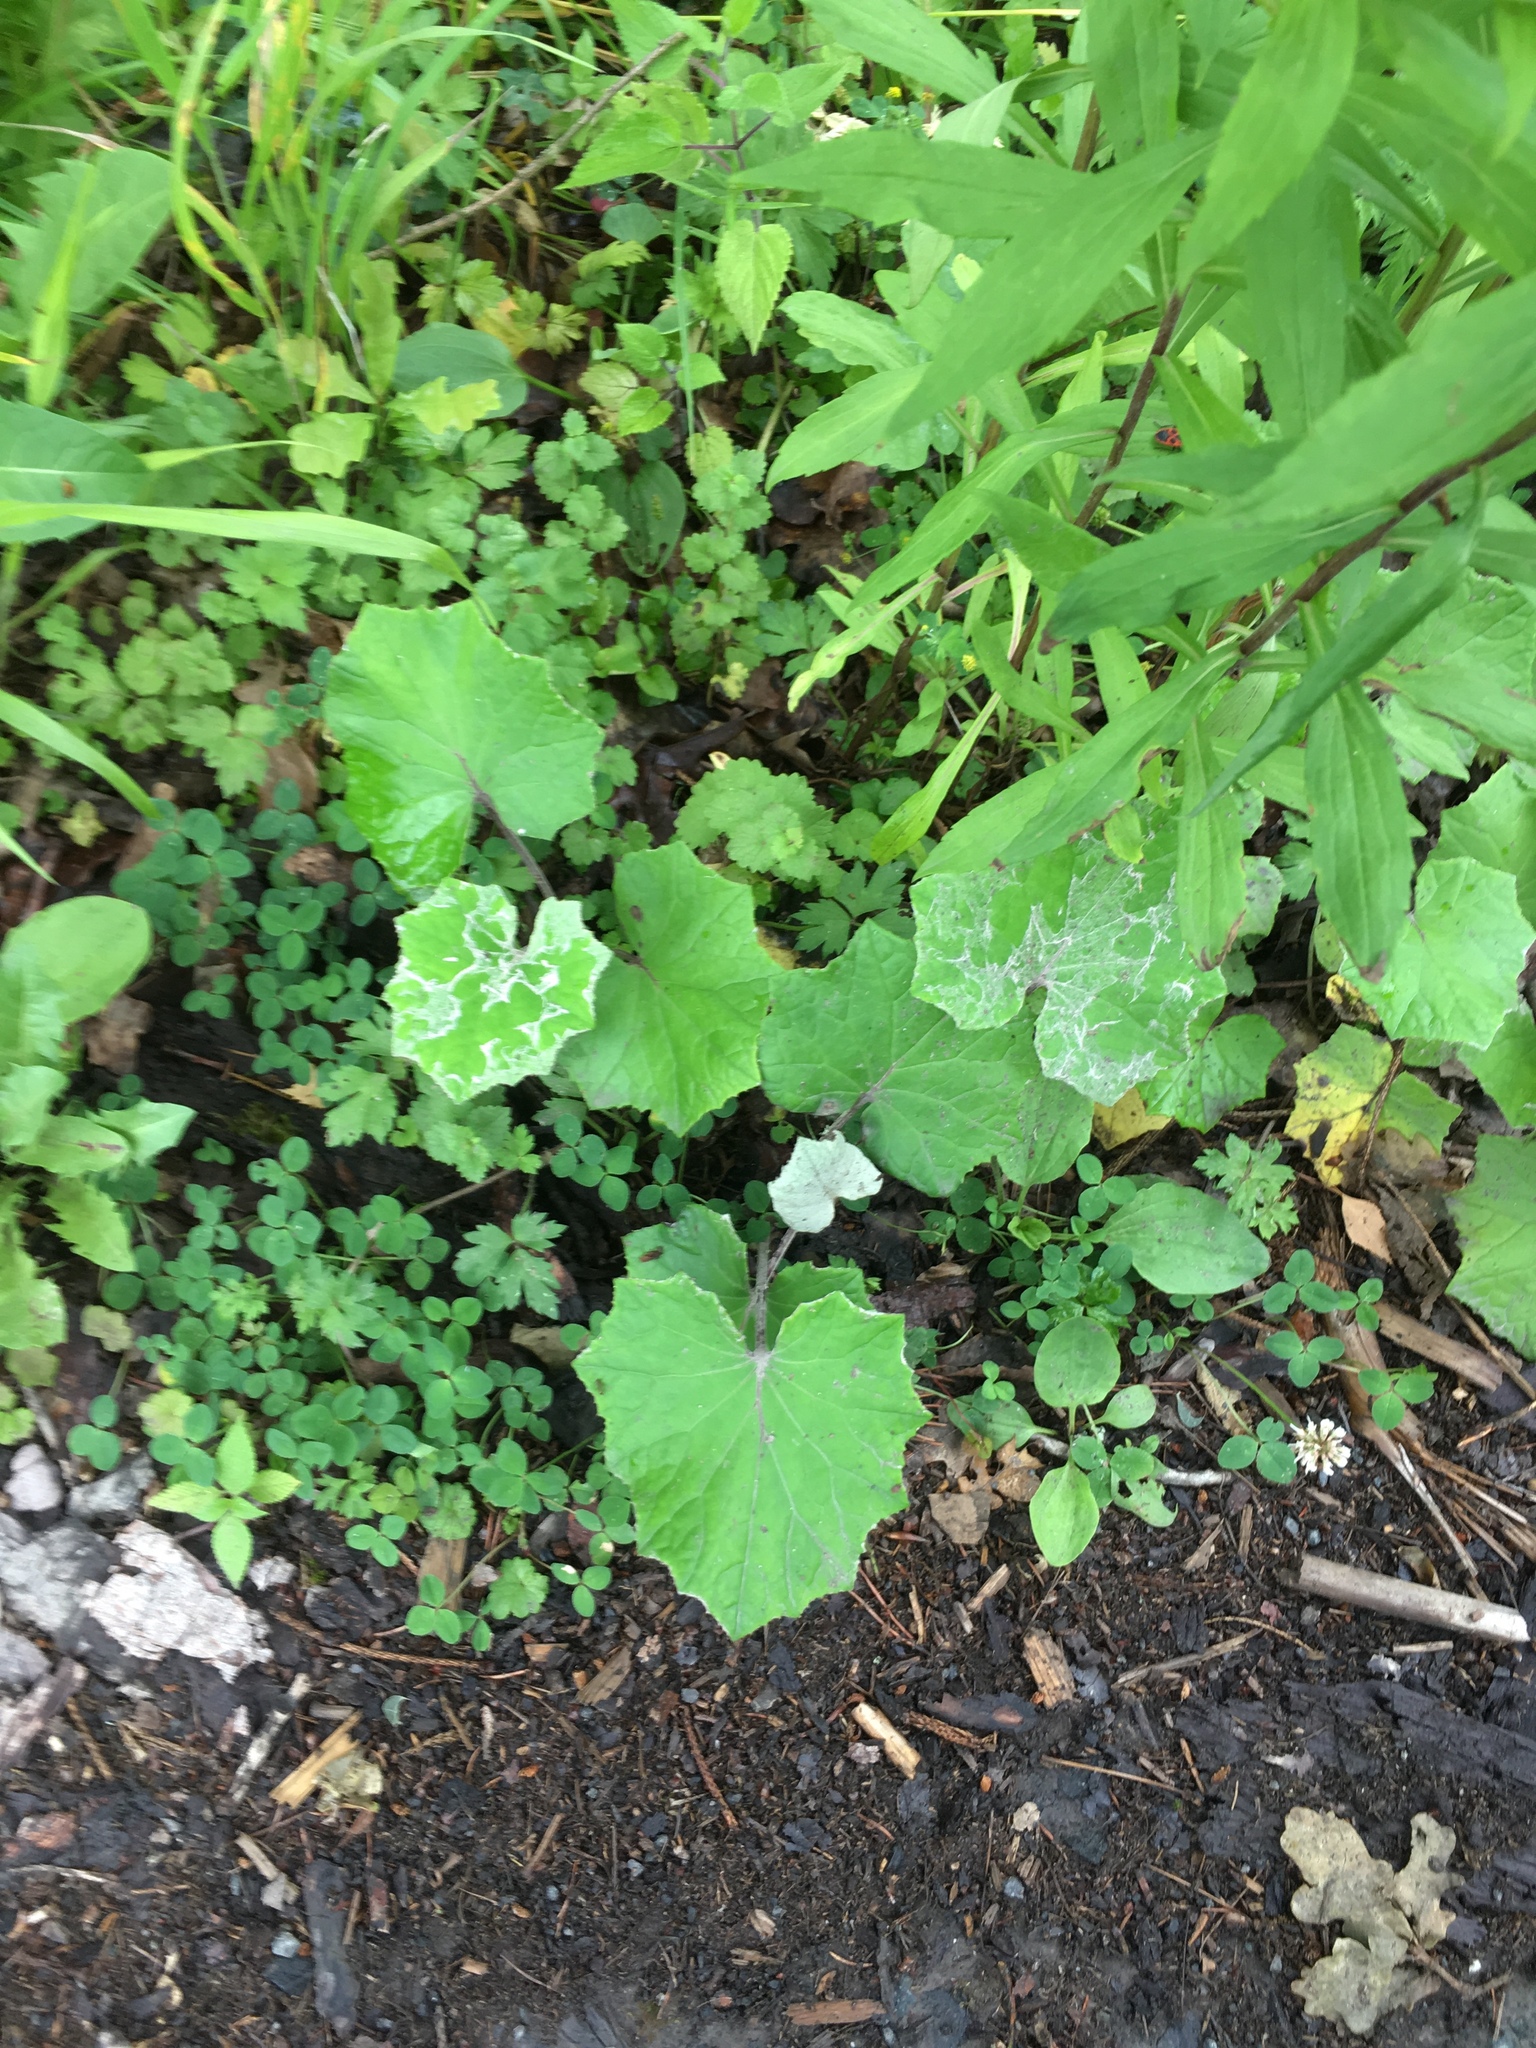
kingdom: Plantae
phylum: Tracheophyta
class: Magnoliopsida
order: Asterales
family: Asteraceae
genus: Tussilago
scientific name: Tussilago farfara
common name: Coltsfoot
